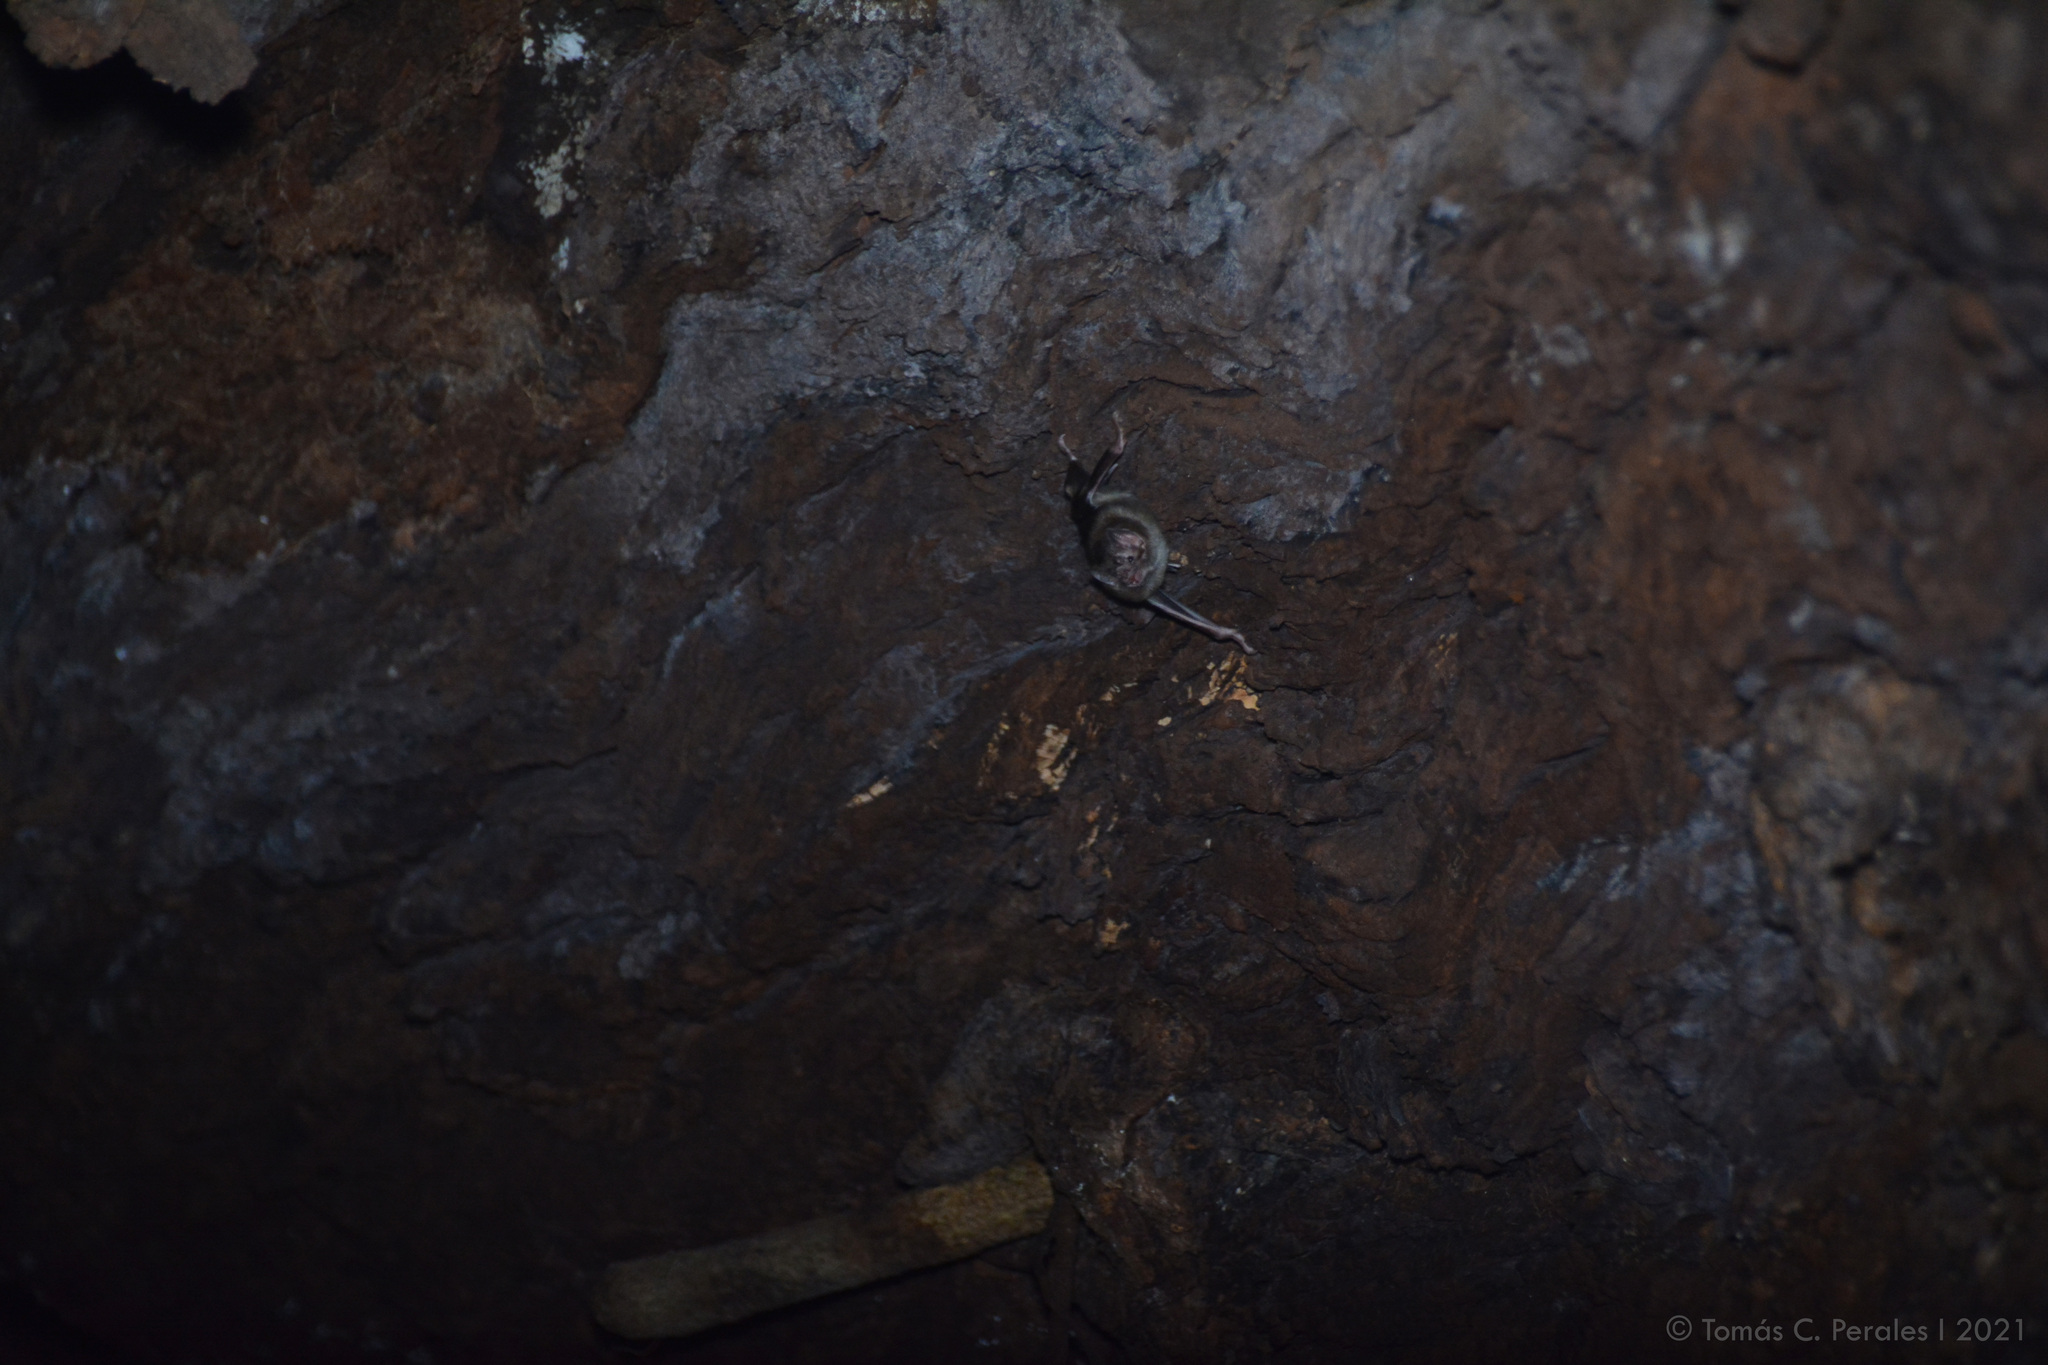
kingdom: Animalia
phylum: Chordata
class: Mammalia
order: Chiroptera
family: Phyllostomidae
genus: Desmodus
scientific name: Desmodus rotundus
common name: Common vampire bat
